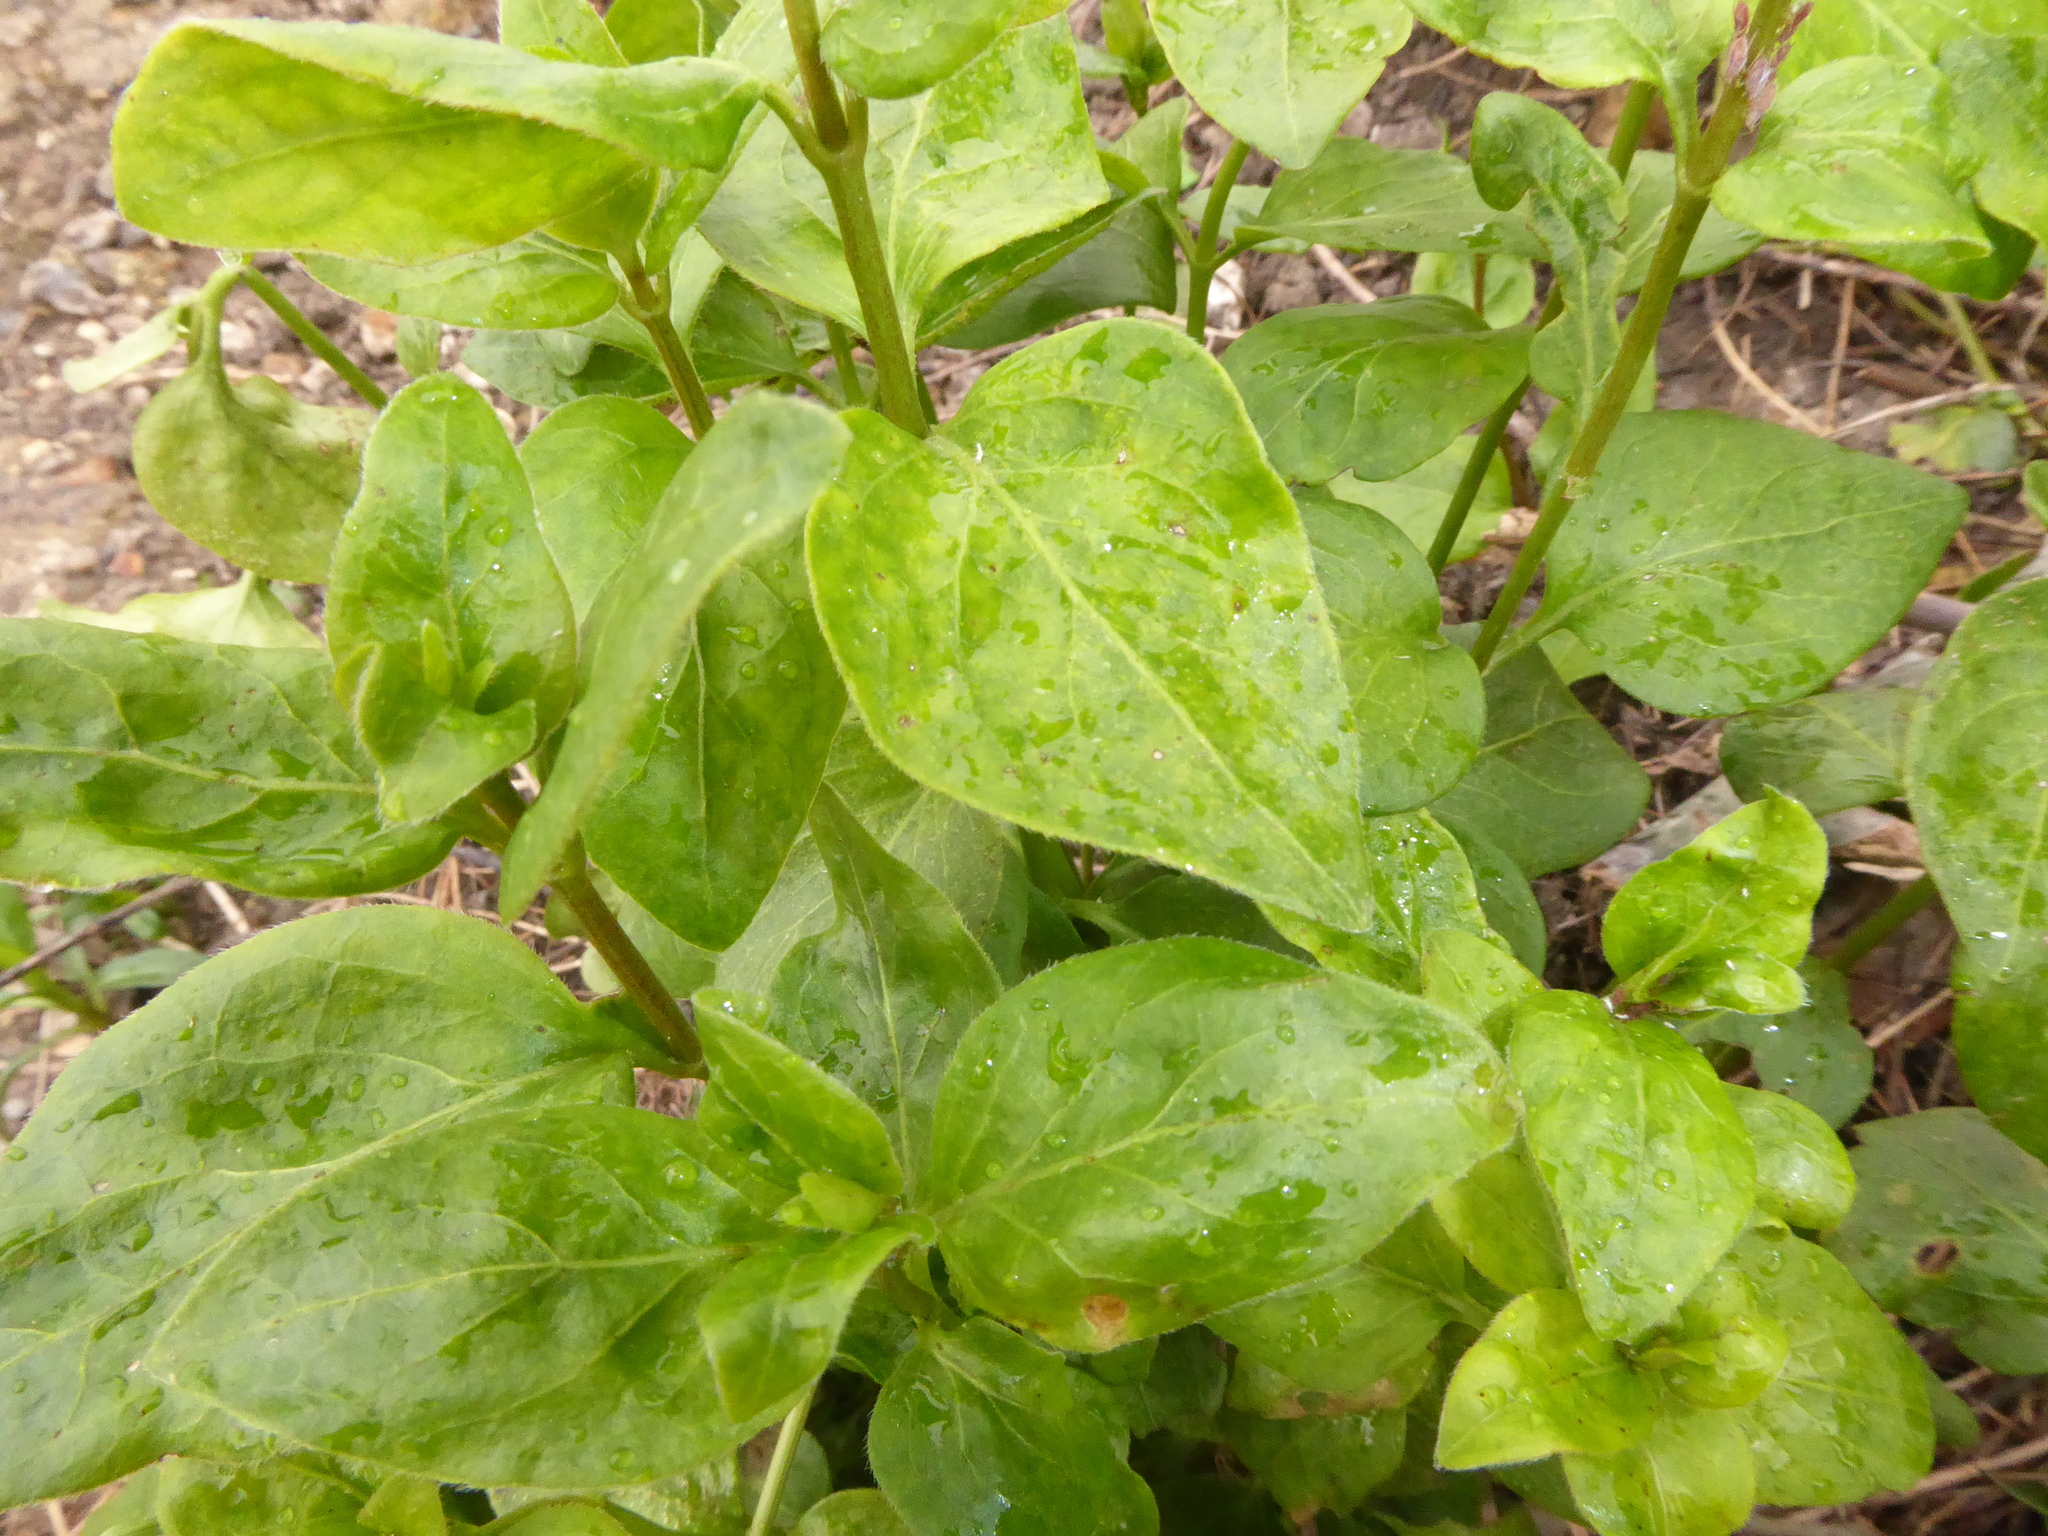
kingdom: Plantae
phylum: Tracheophyta
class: Magnoliopsida
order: Gentianales
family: Apocynaceae
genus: Vinca
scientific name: Vinca major
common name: Greater periwinkle
